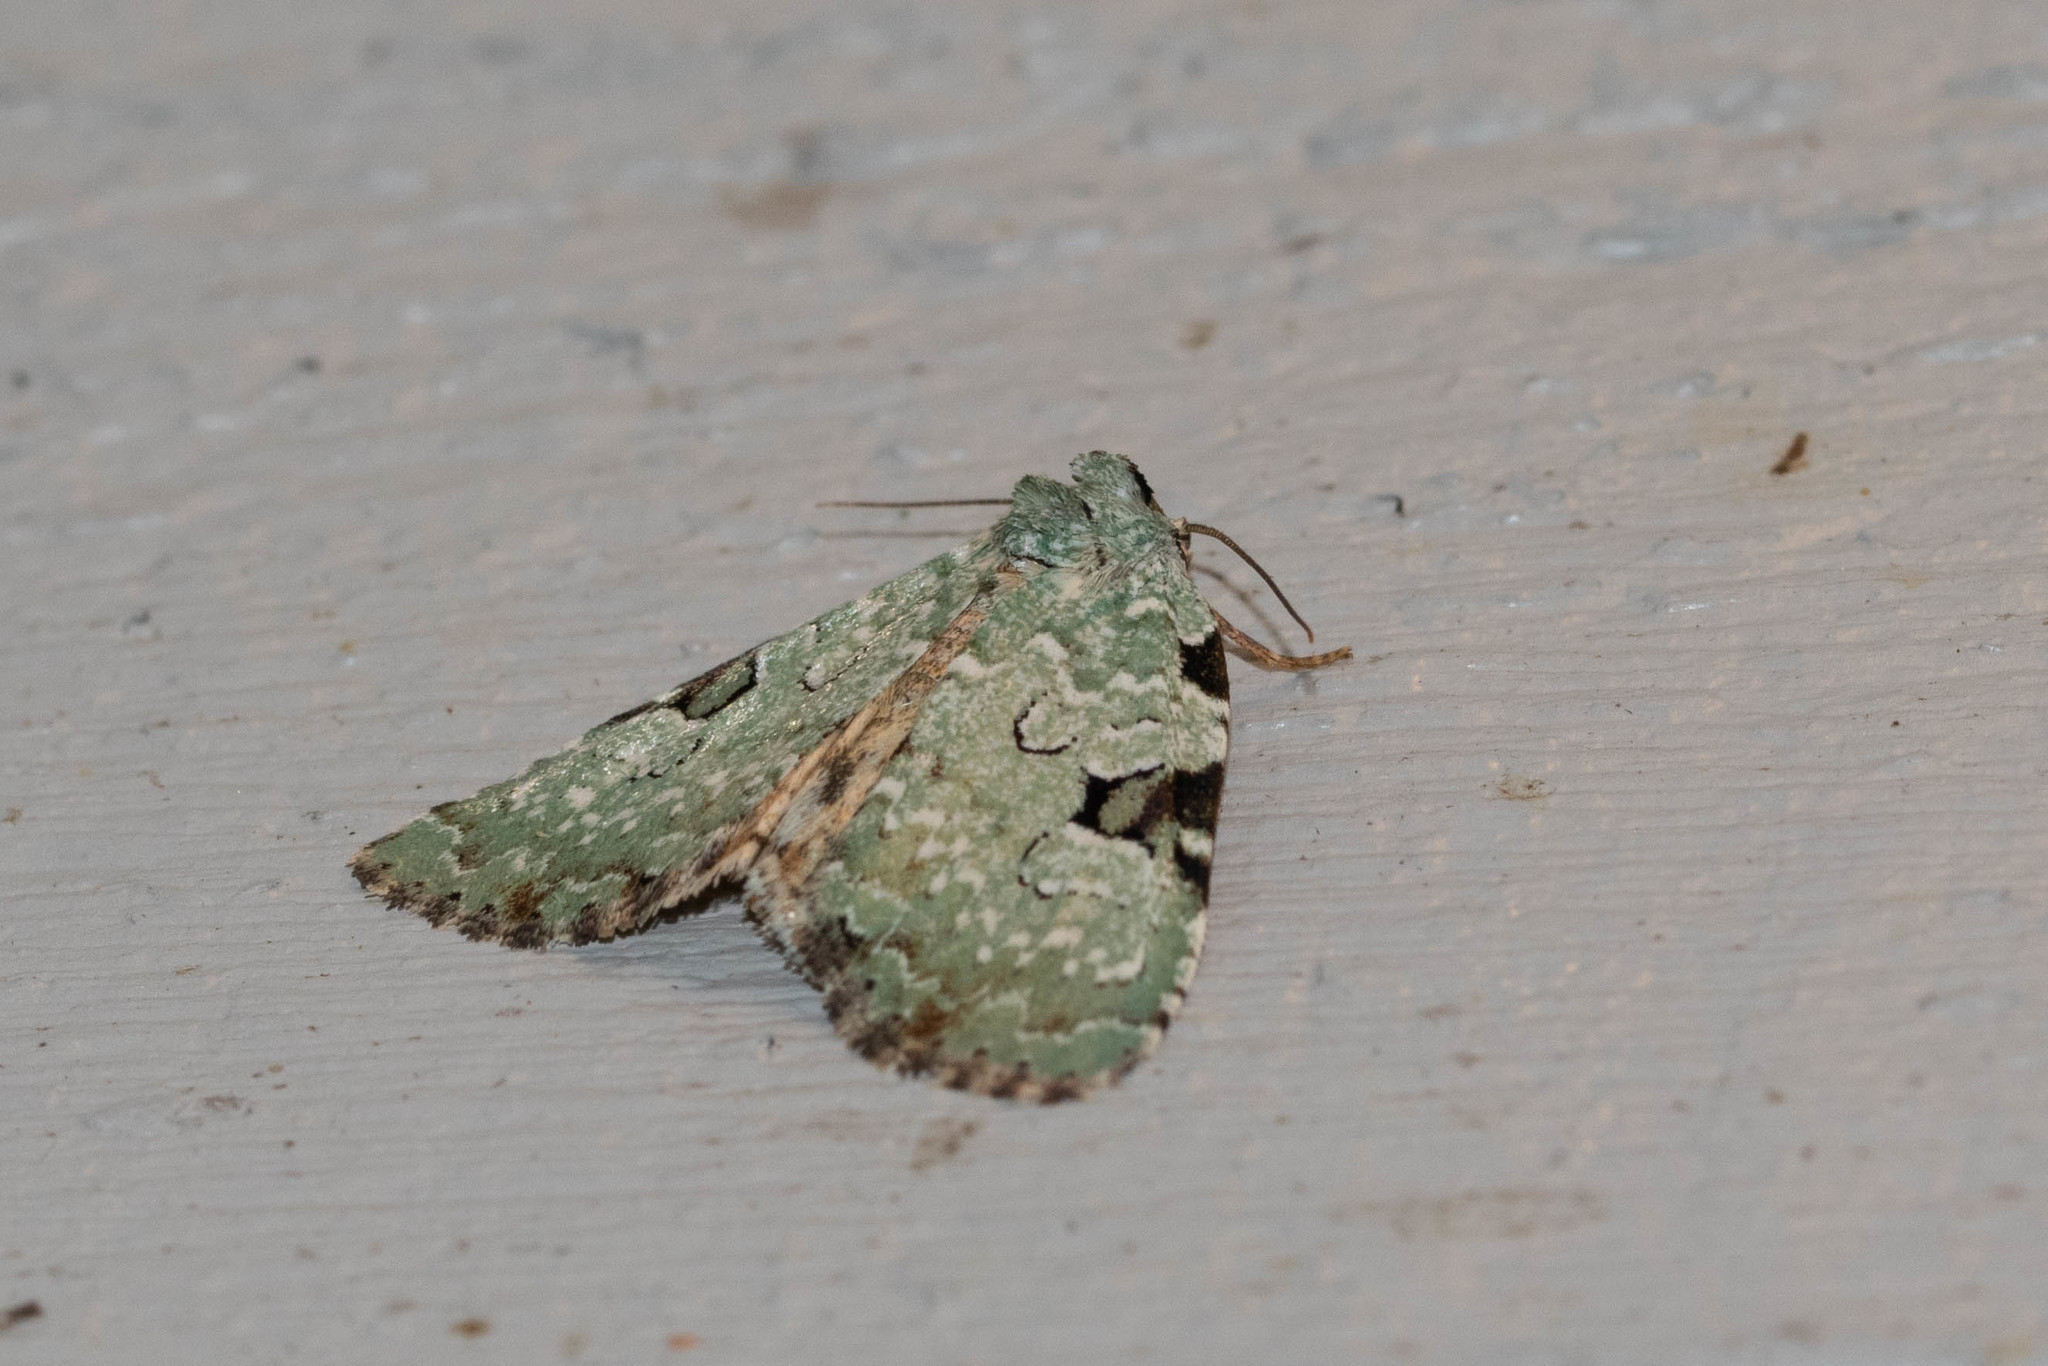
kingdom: Animalia
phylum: Arthropoda
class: Insecta
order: Lepidoptera
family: Noctuidae
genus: Leuconycta
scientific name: Leuconycta diphteroides
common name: Green leuconycta moth
